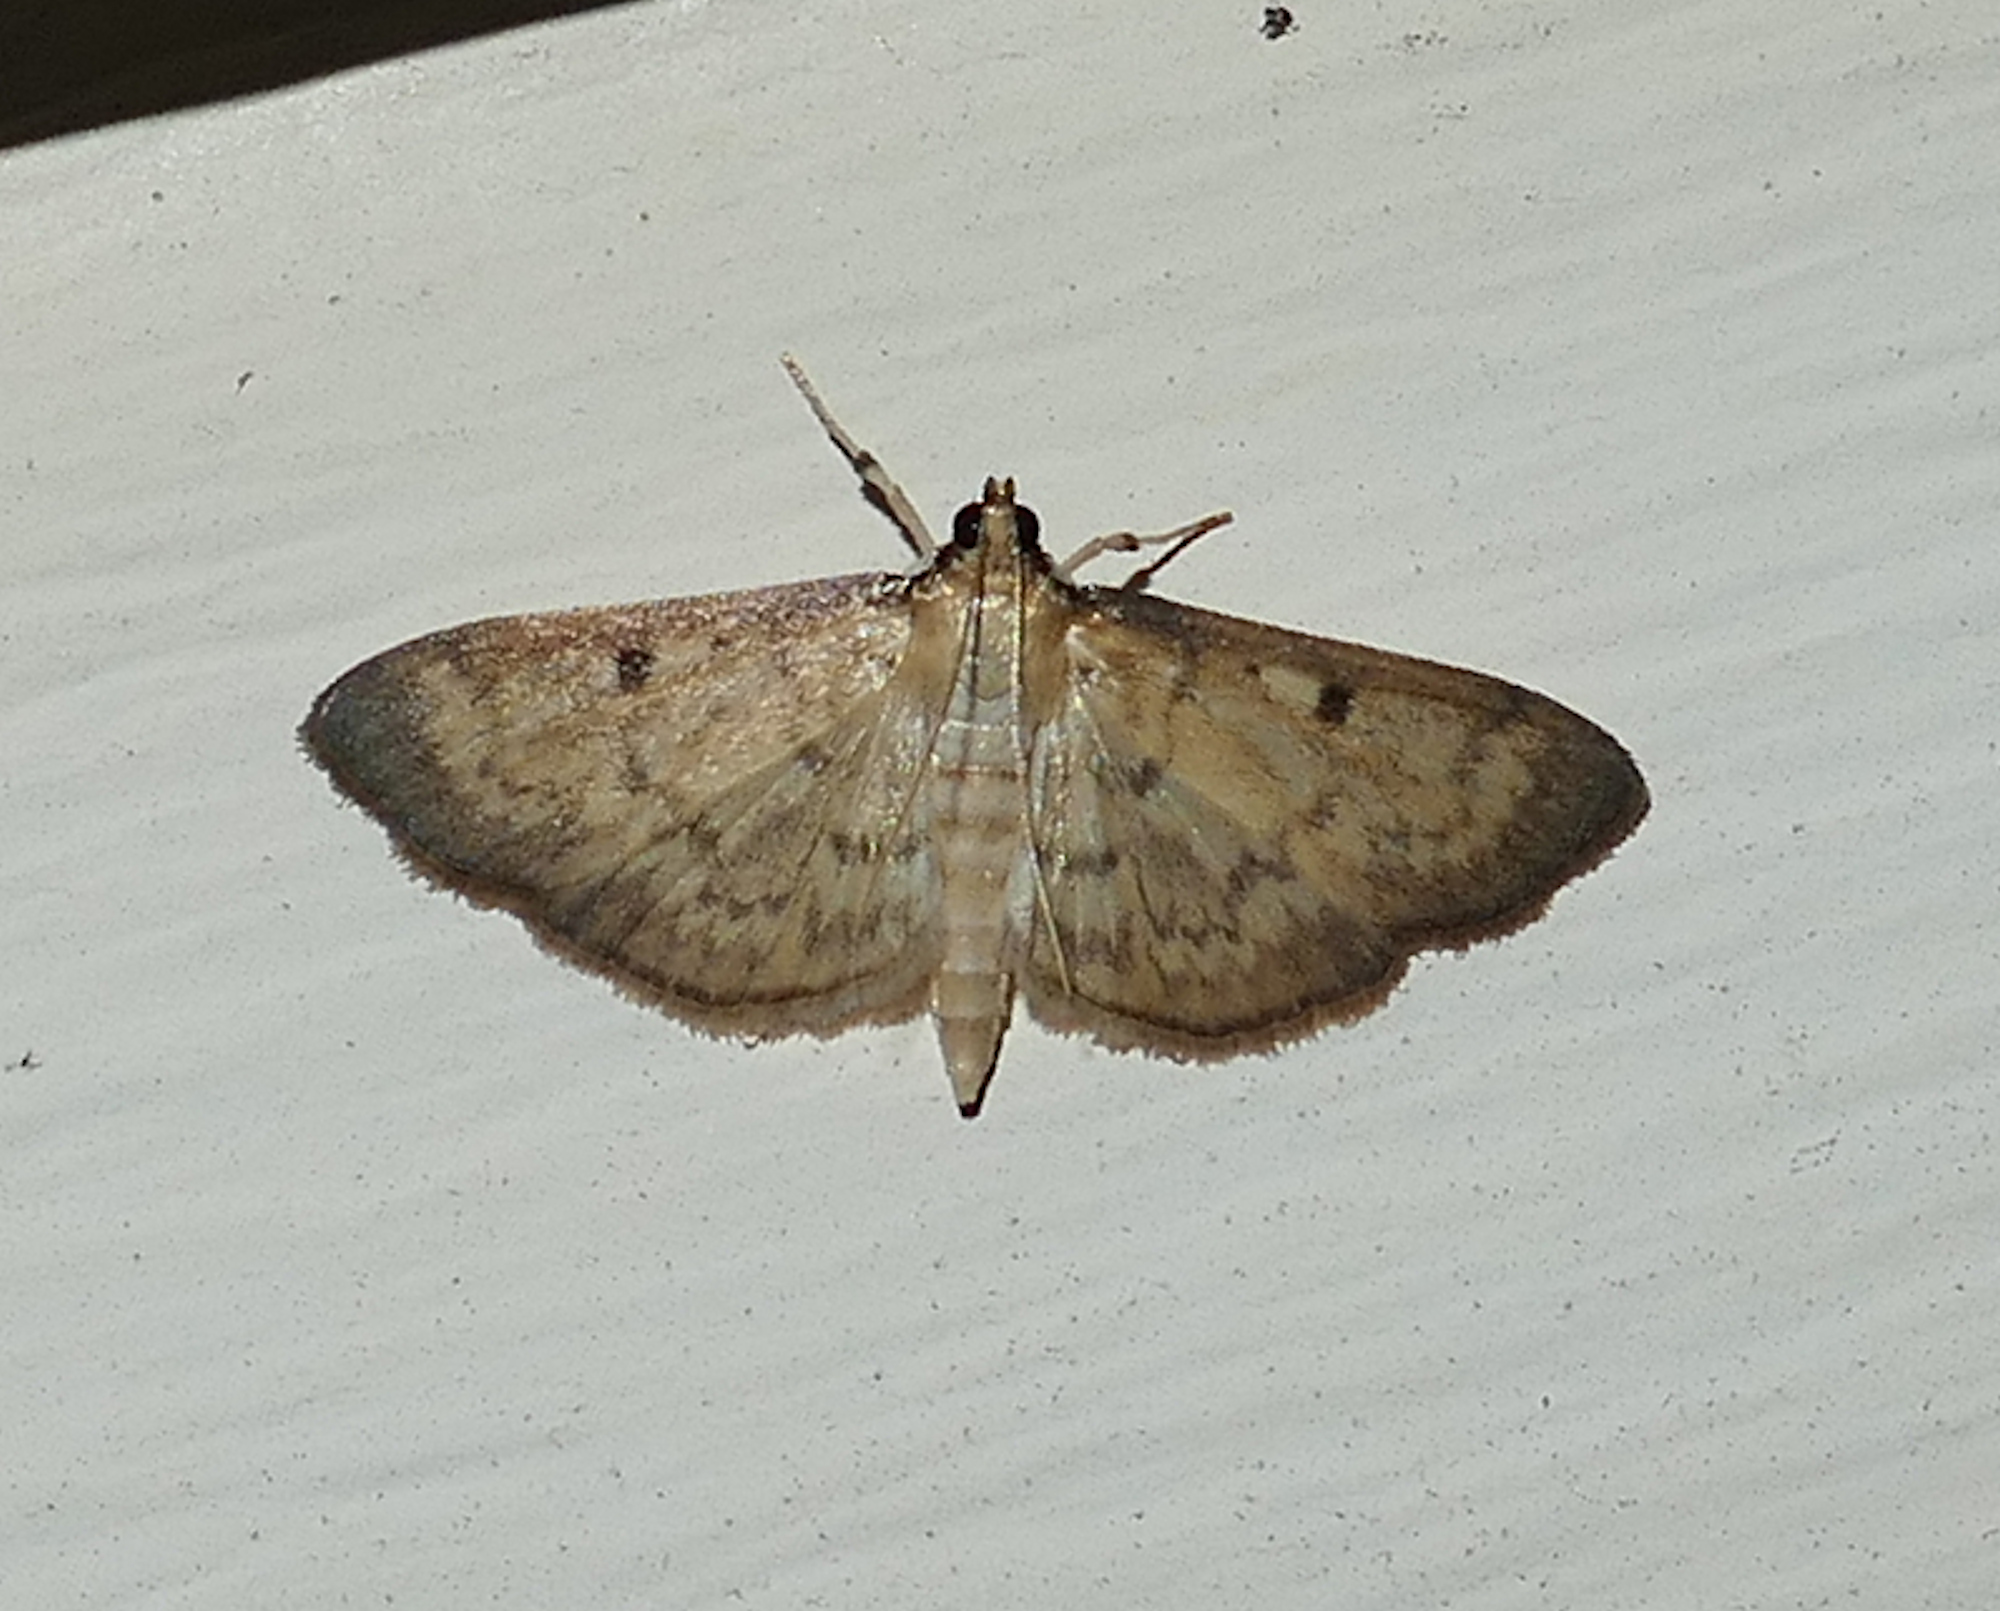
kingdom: Animalia
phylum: Arthropoda
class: Insecta
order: Lepidoptera
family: Crambidae
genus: Herpetogramma
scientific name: Herpetogramma fluctuosalis
